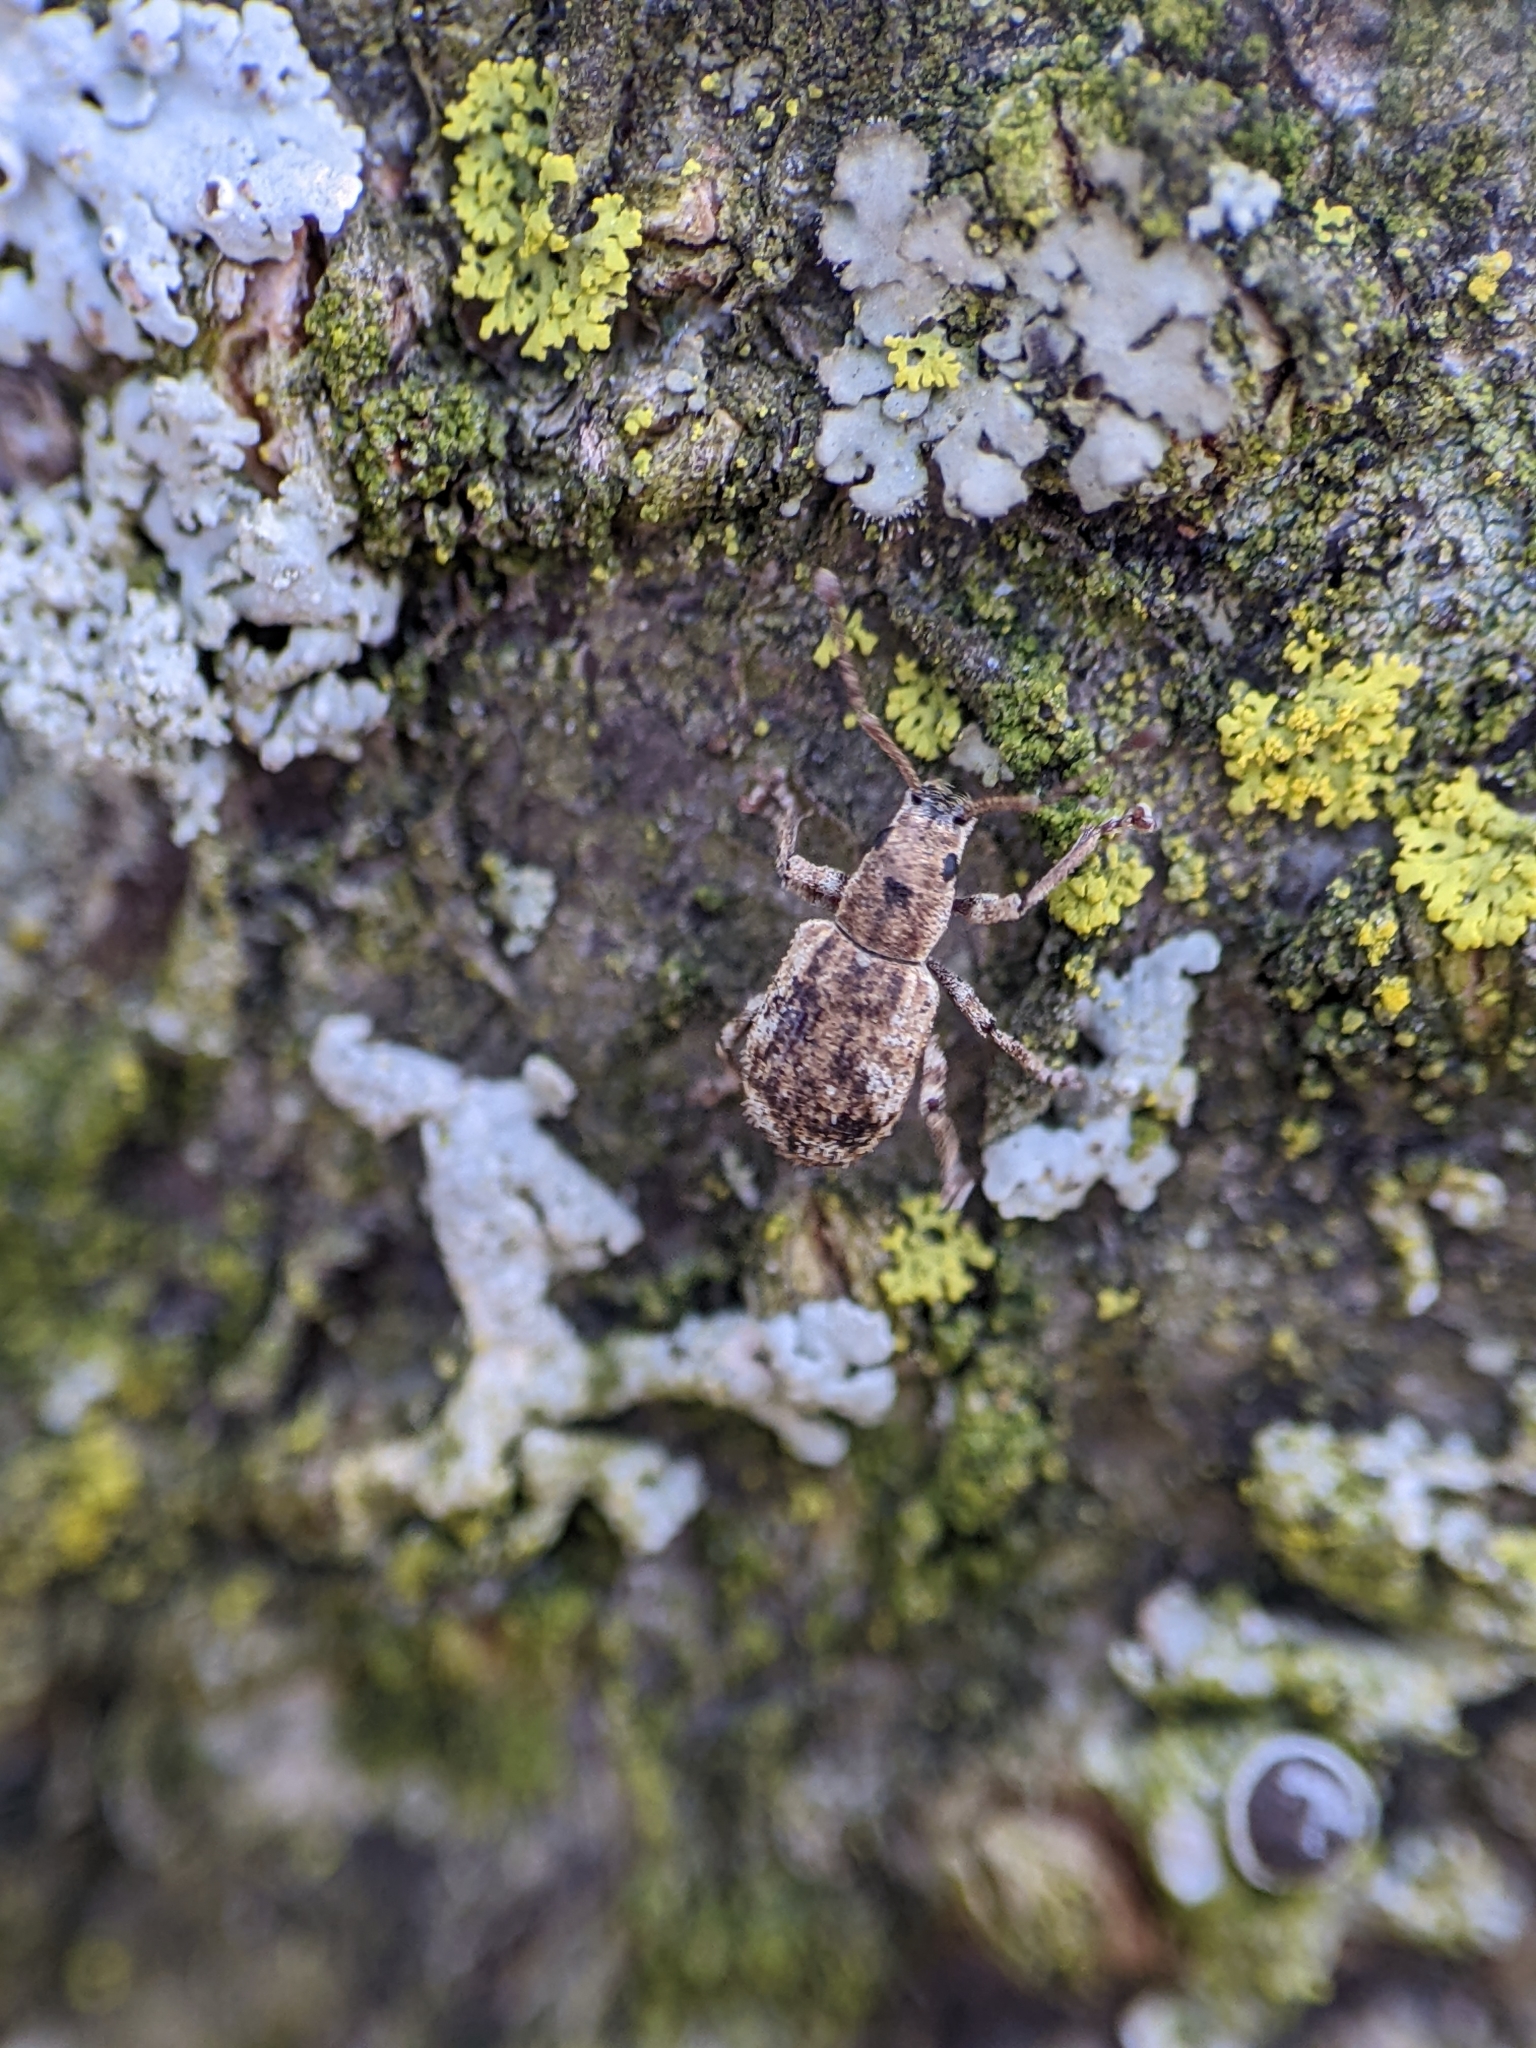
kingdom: Animalia
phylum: Arthropoda
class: Insecta
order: Coleoptera
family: Curculionidae
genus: Pseudoedophrys
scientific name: Pseudoedophrys hilleri
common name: Weevil
